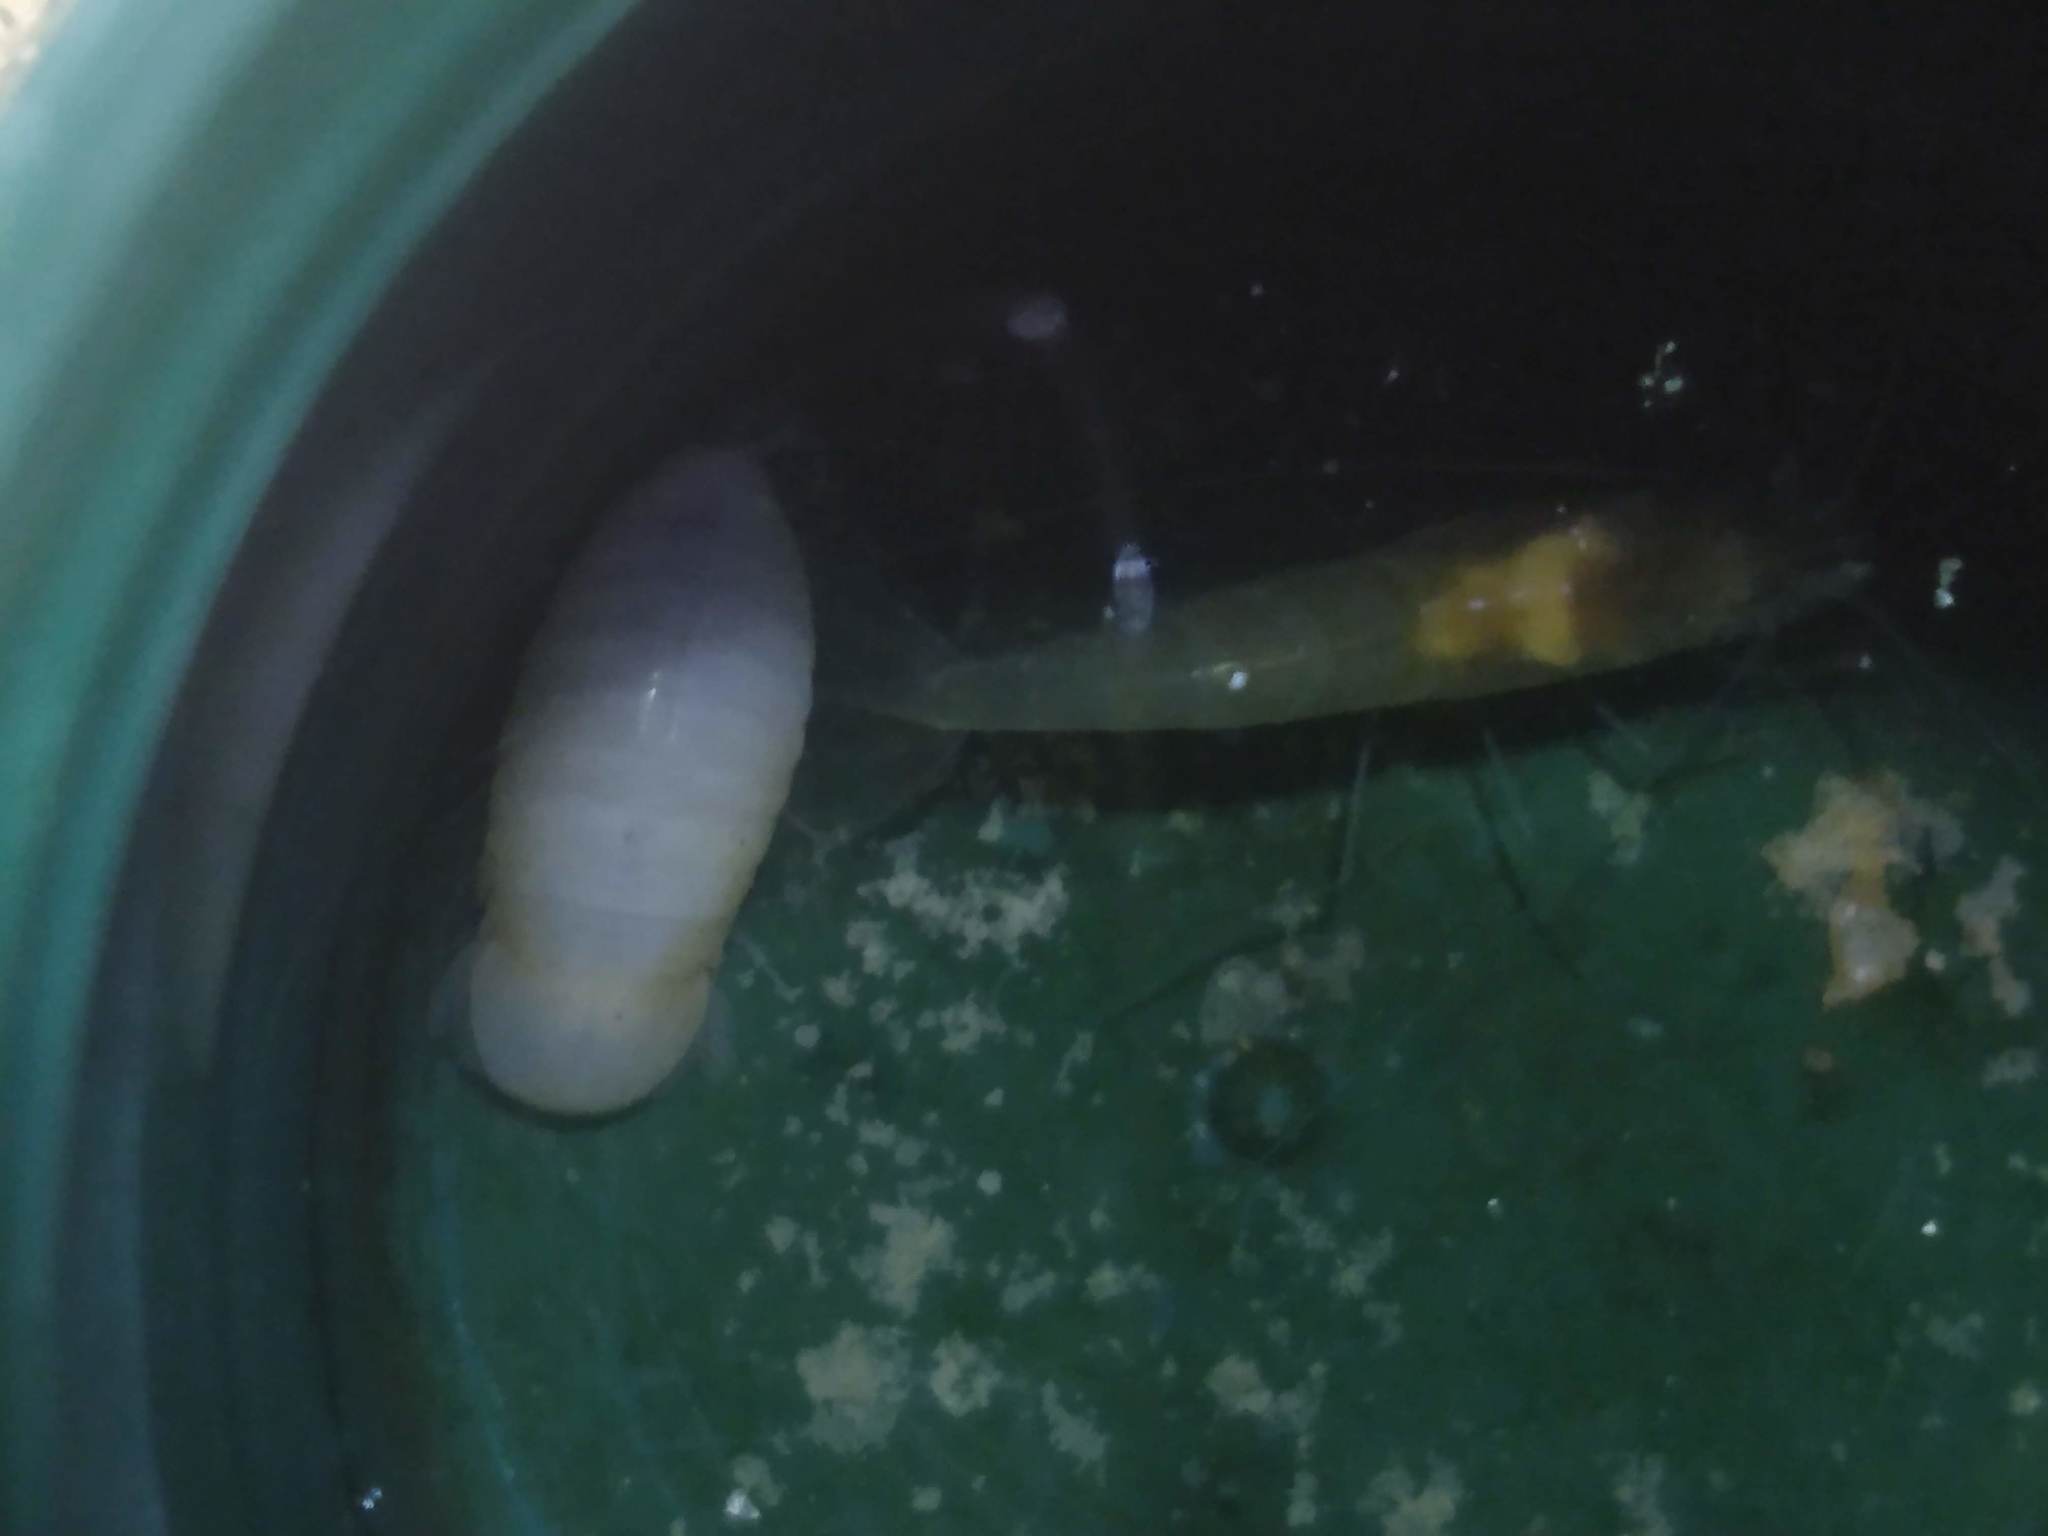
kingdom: Animalia
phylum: Arthropoda
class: Malacostraca
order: Isopoda
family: Cirolanidae
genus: Creaseriella
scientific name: Creaseriella anops
